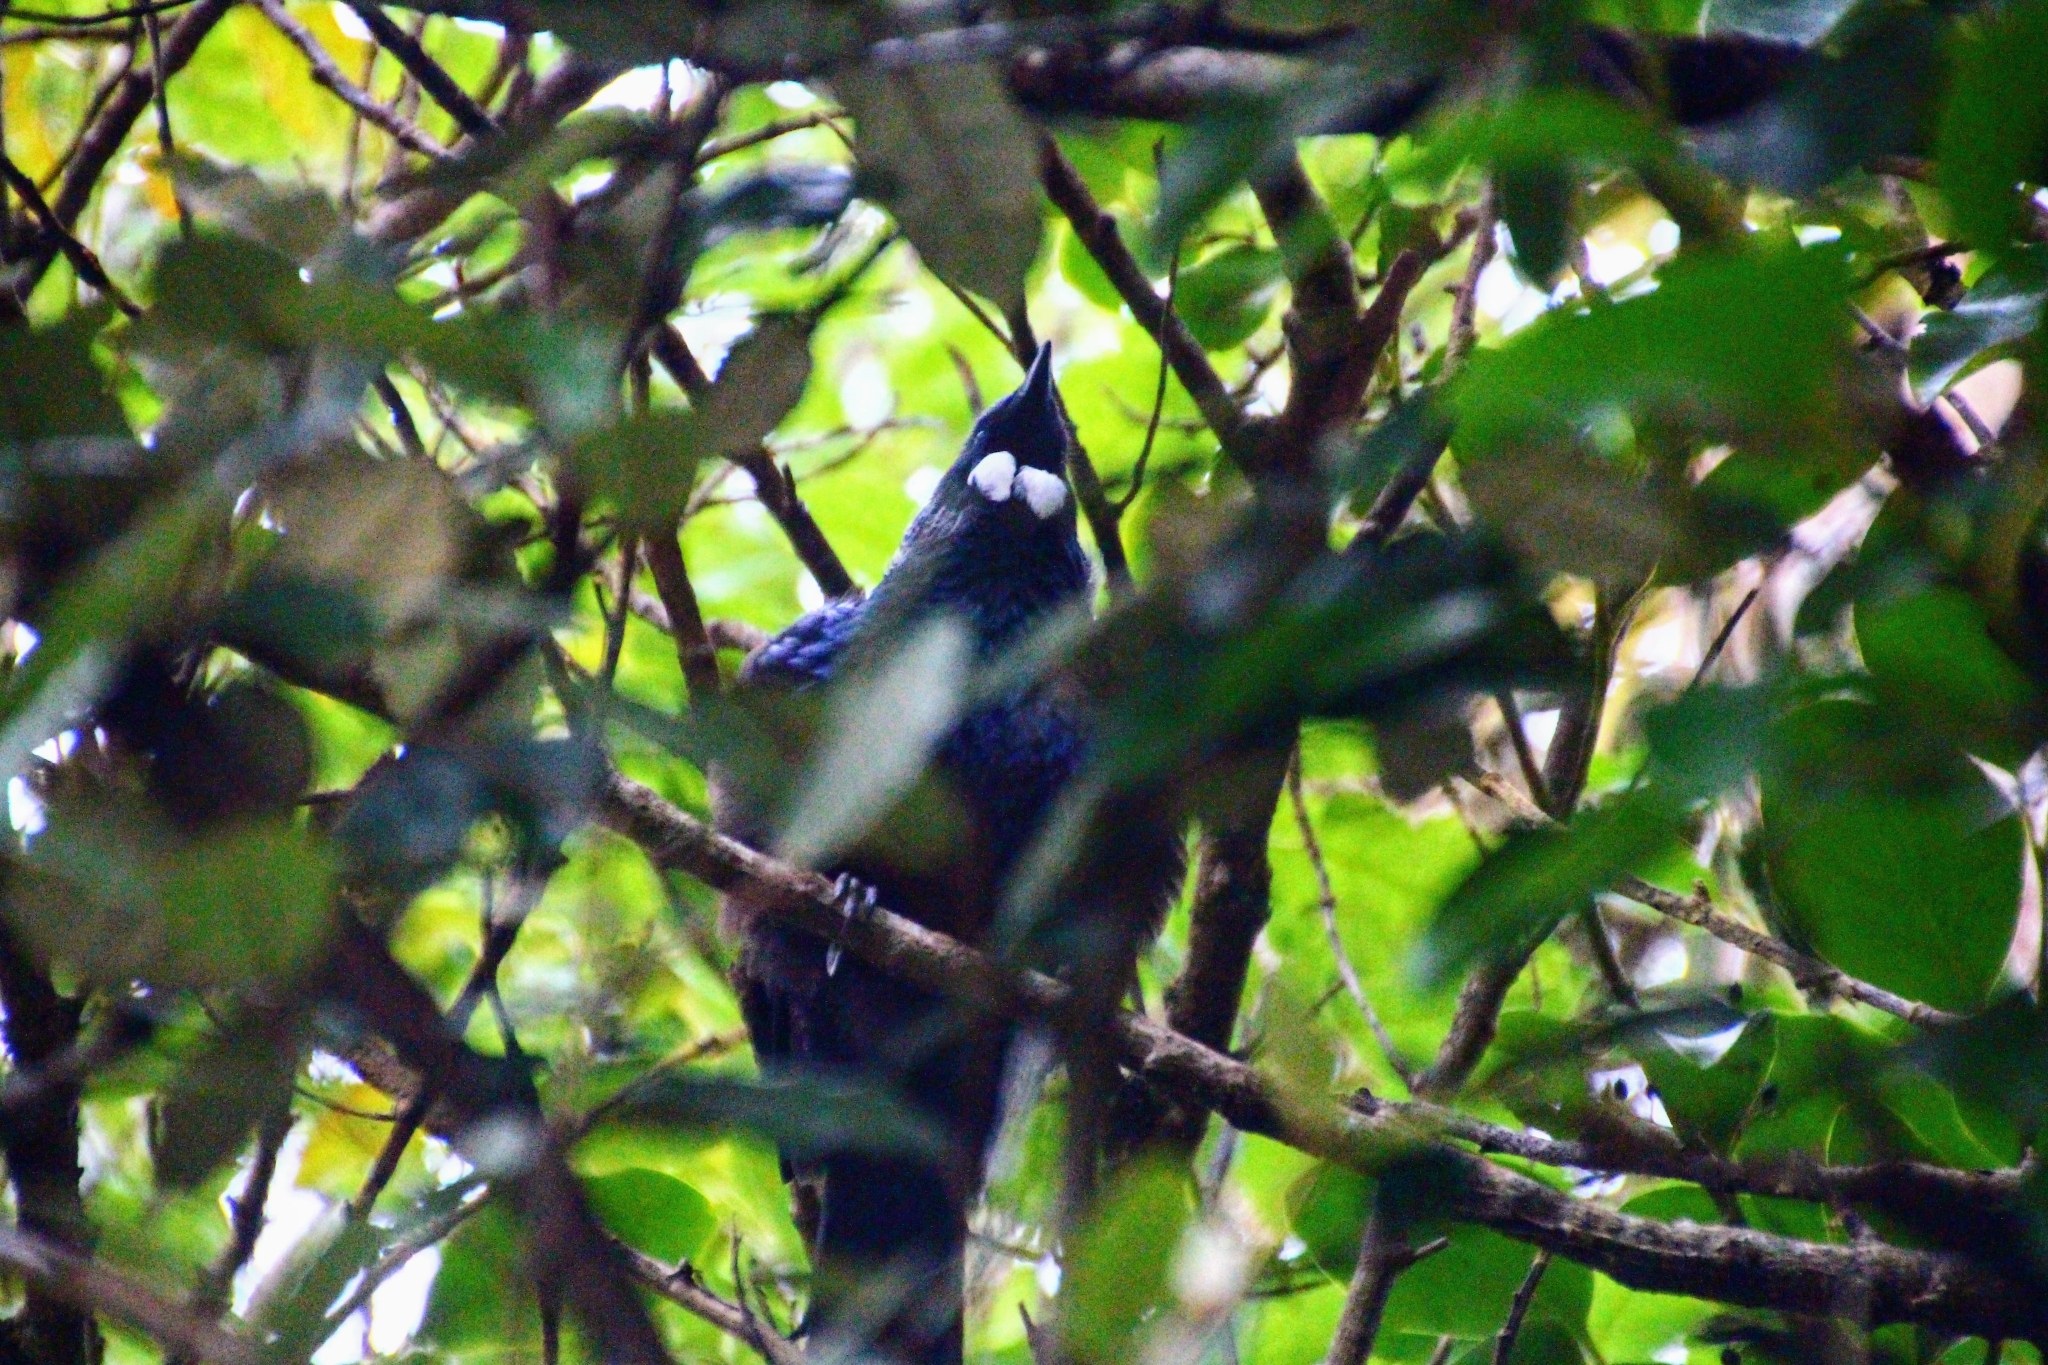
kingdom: Animalia
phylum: Chordata
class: Aves
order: Passeriformes
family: Meliphagidae
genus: Prosthemadera
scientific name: Prosthemadera novaeseelandiae
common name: Tui
